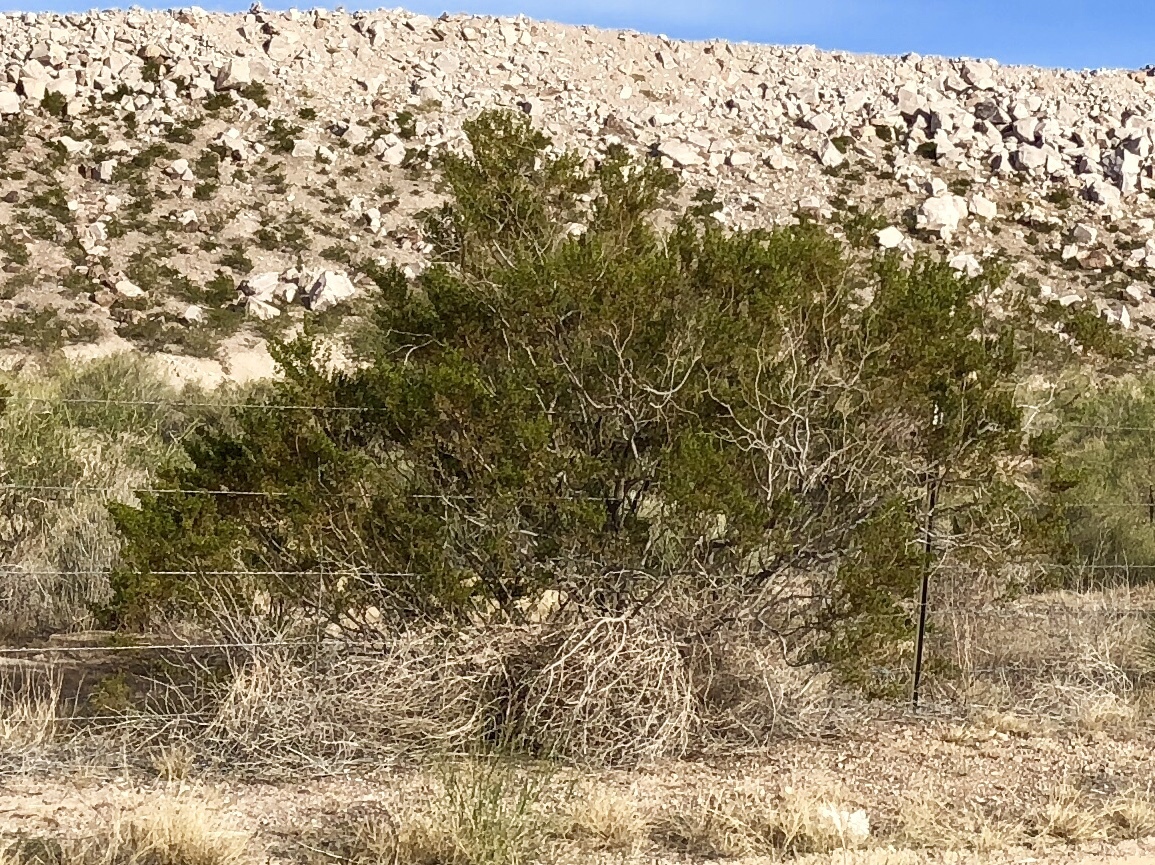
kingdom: Plantae
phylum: Tracheophyta
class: Magnoliopsida
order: Zygophyllales
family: Zygophyllaceae
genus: Larrea
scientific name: Larrea tridentata
